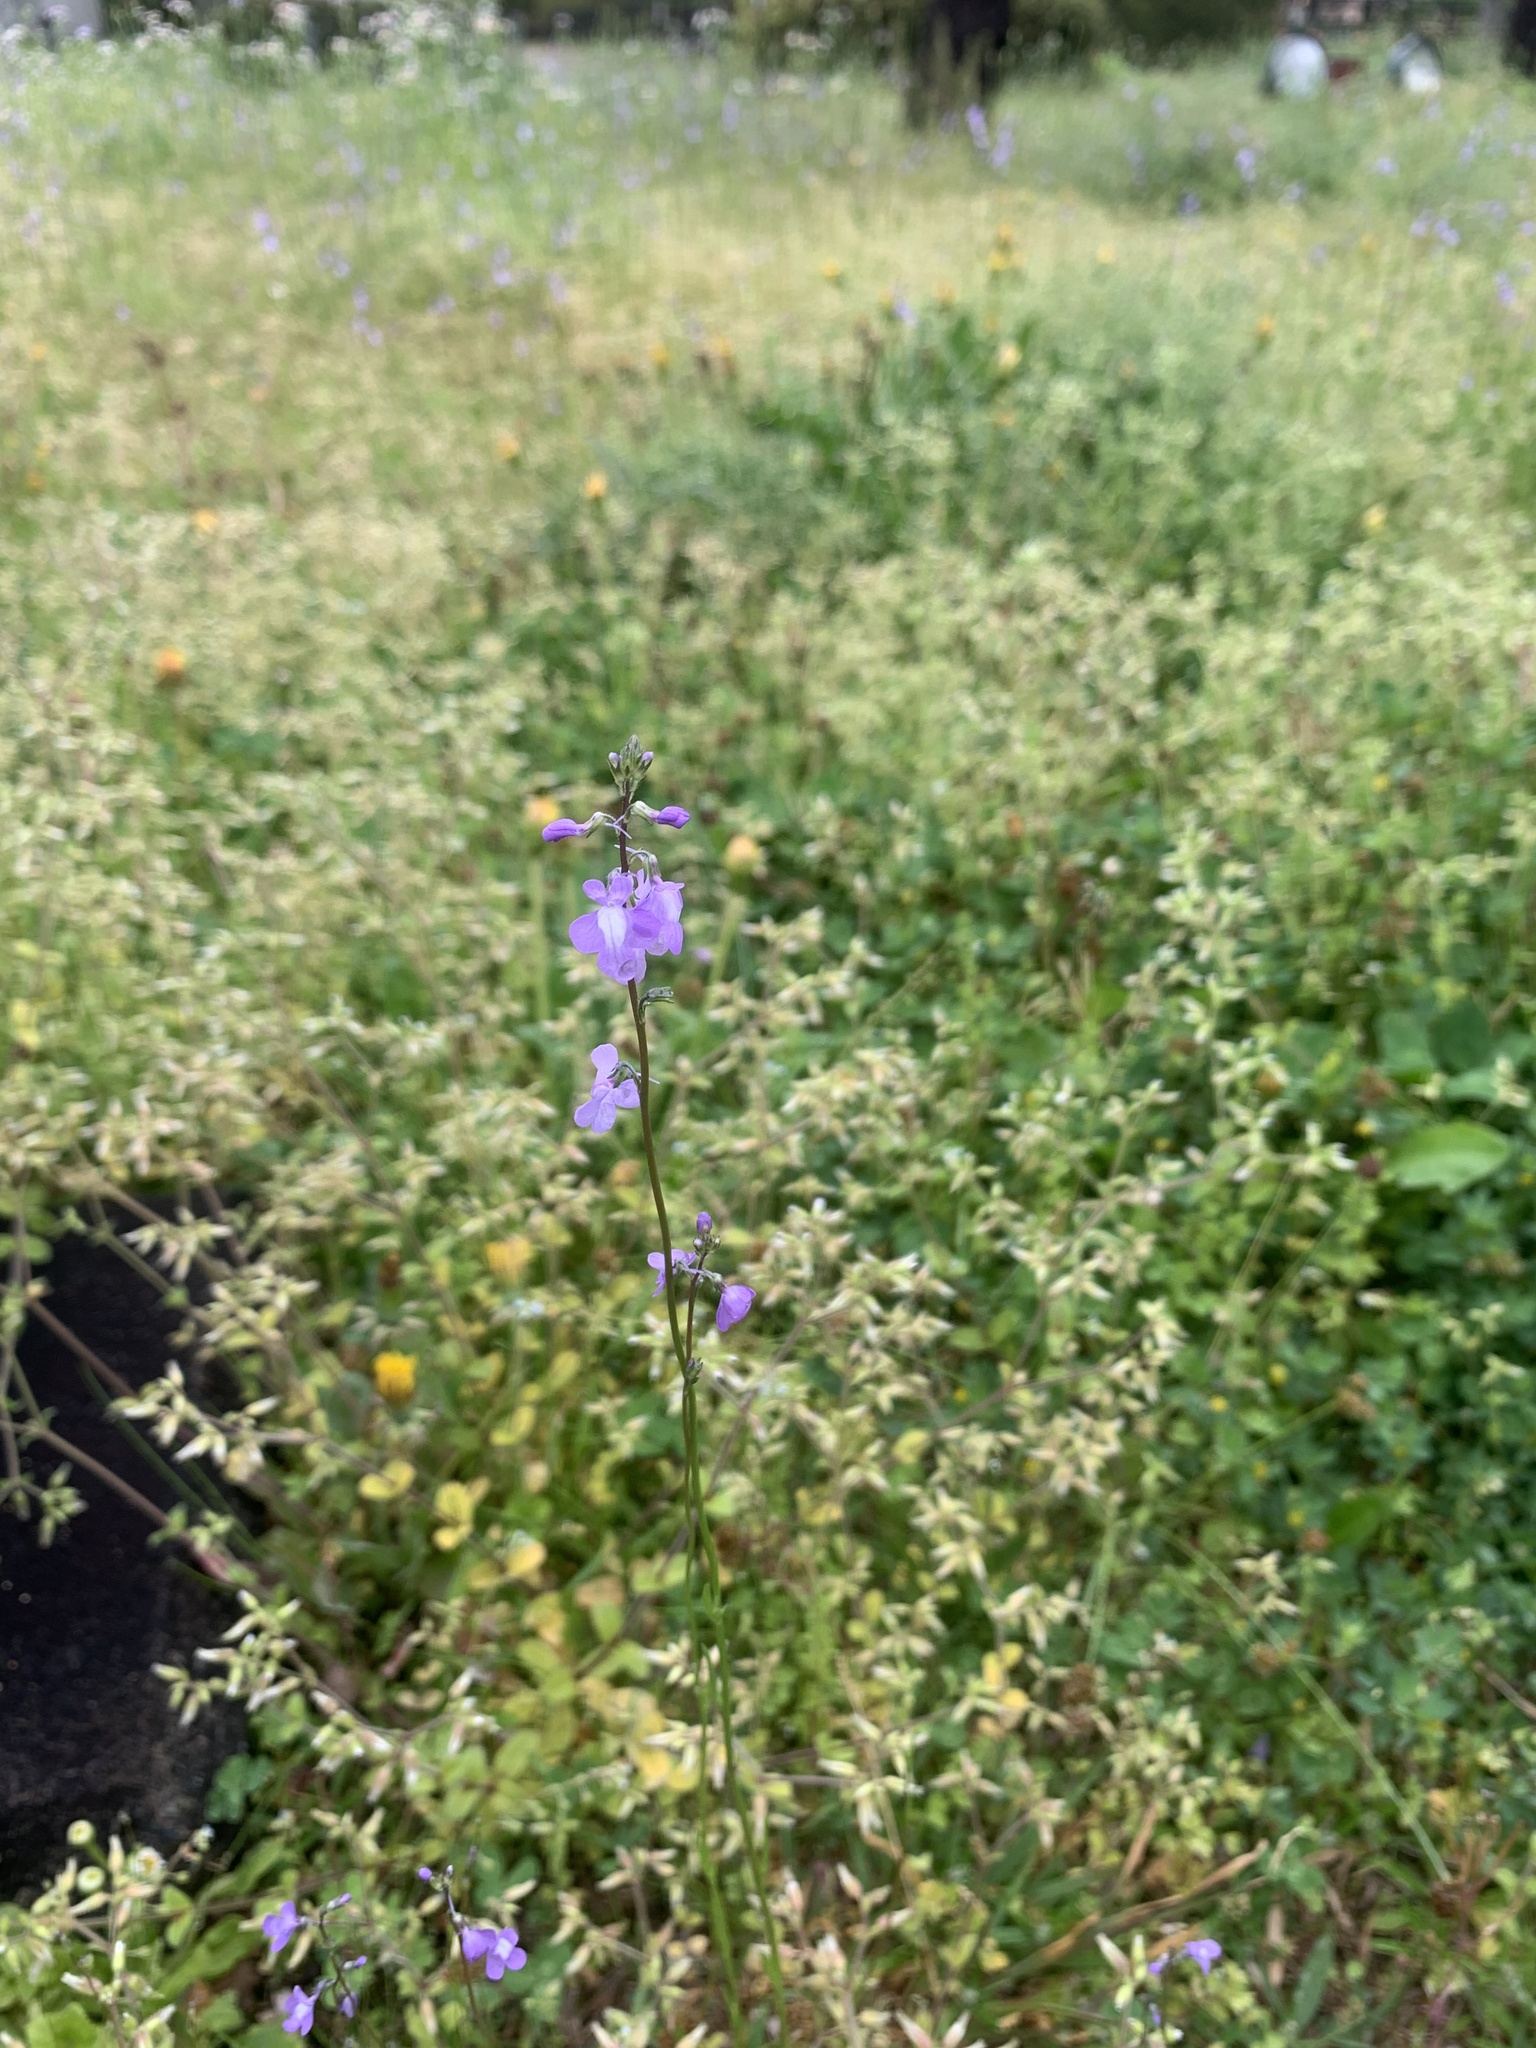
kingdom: Plantae
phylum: Tracheophyta
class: Magnoliopsida
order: Lamiales
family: Plantaginaceae
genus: Nuttallanthus
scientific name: Nuttallanthus canadensis
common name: Blue toadflax
